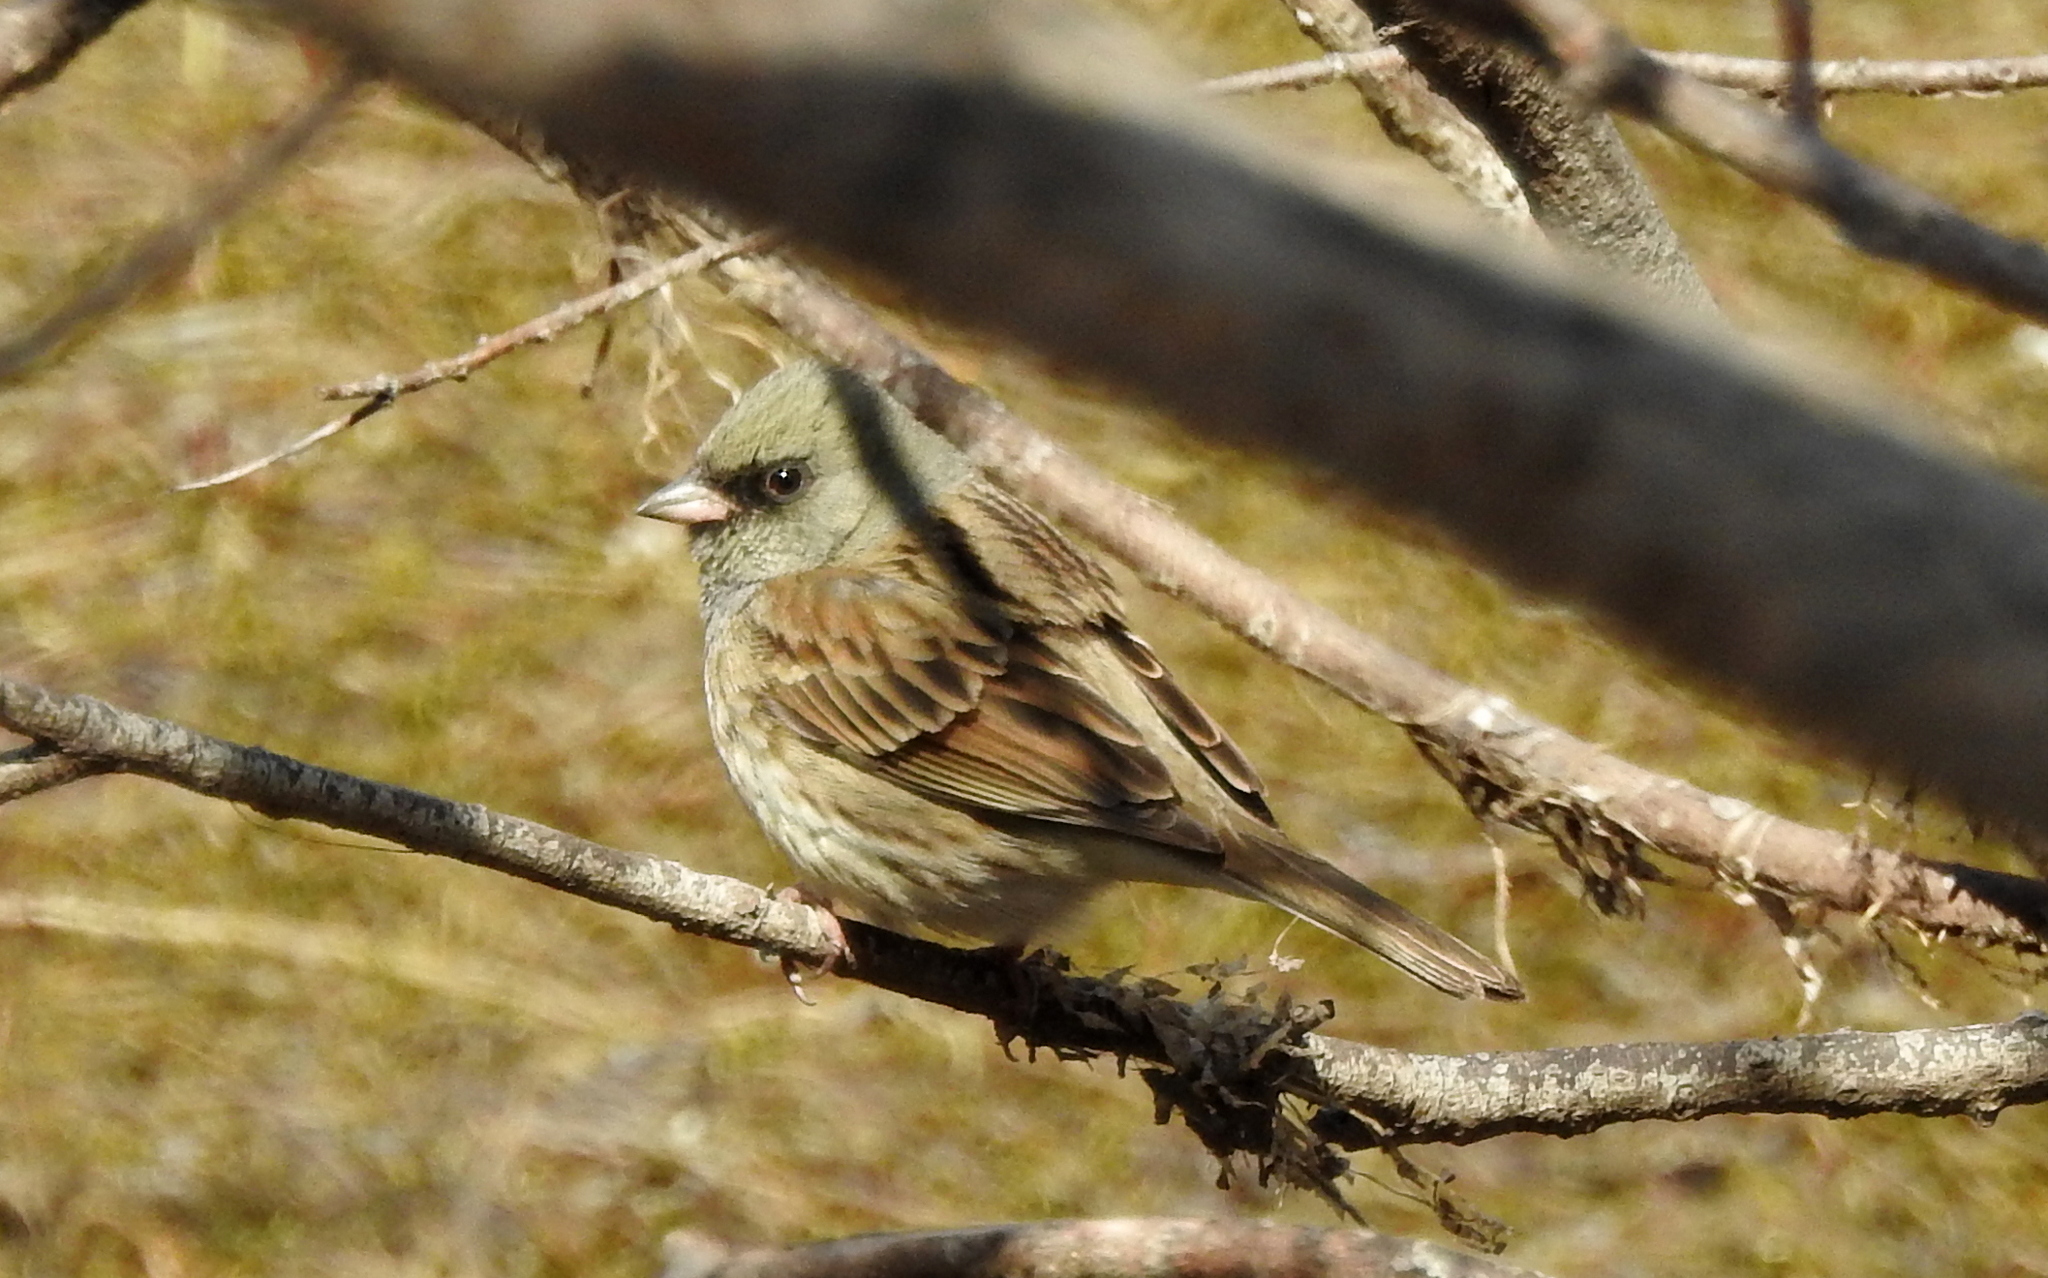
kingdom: Animalia
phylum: Chordata
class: Aves
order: Passeriformes
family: Emberizidae
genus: Emberiza
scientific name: Emberiza spodocephala
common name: Black-faced bunting
